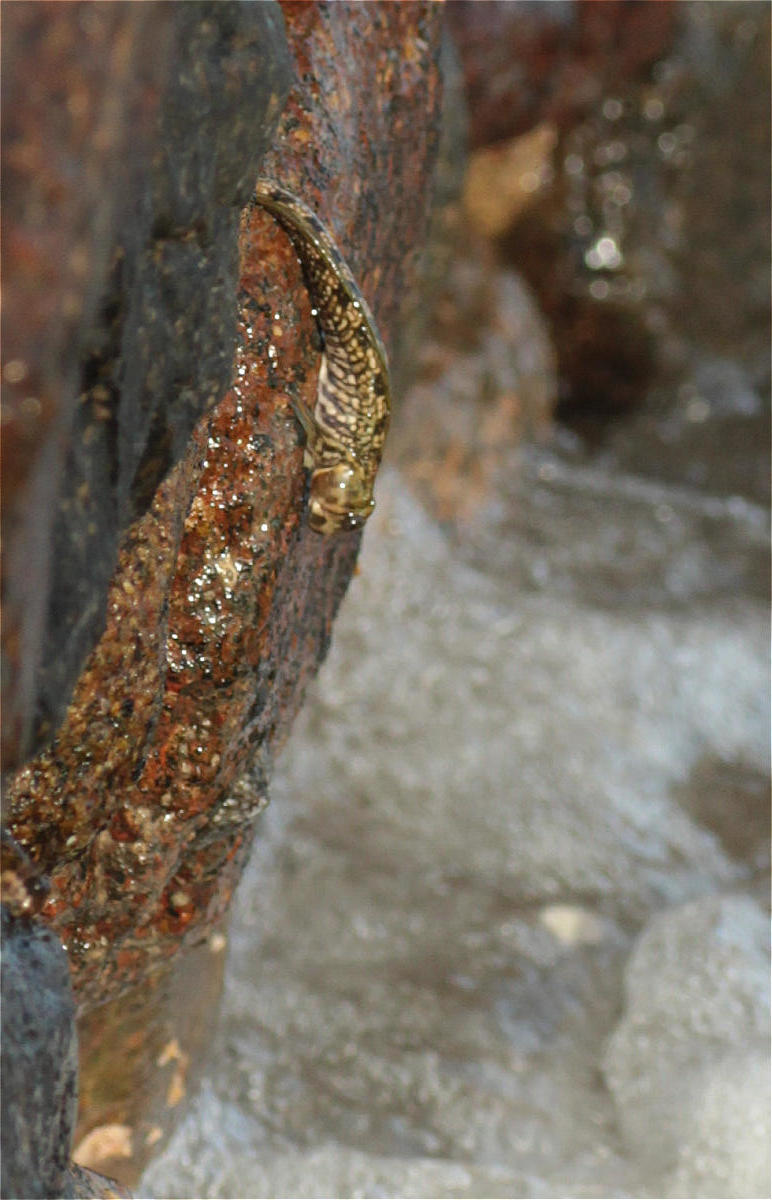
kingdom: Animalia
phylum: Chordata
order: Perciformes
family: Blenniidae
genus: Alticus
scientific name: Alticus magnusi
